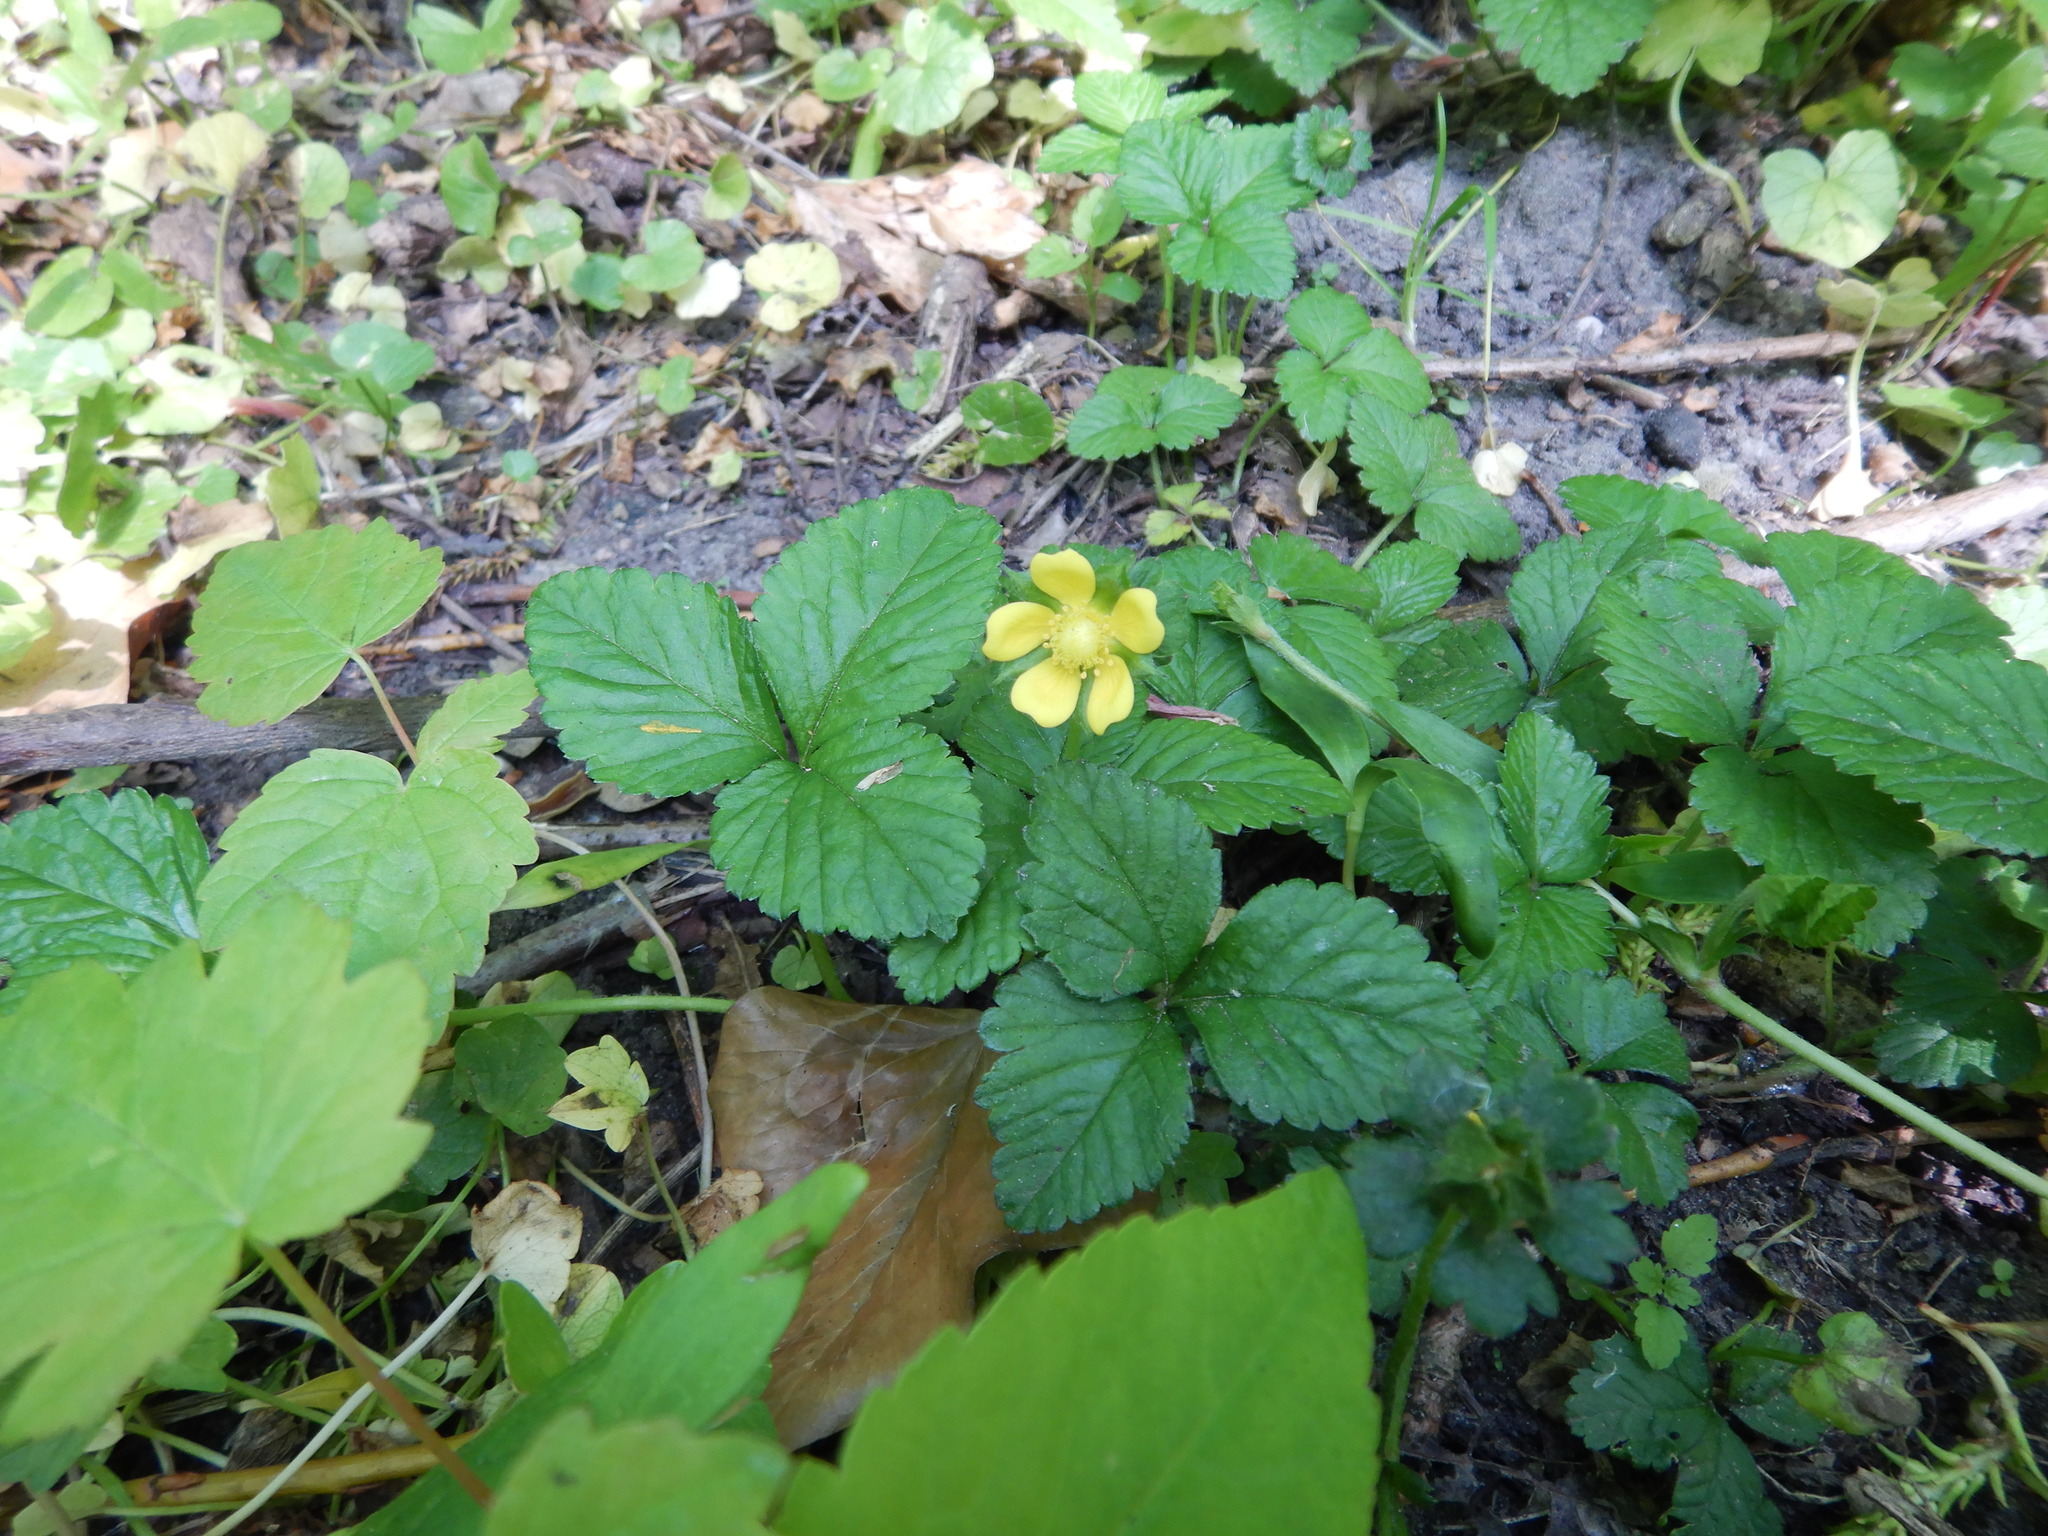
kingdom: Plantae
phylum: Tracheophyta
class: Magnoliopsida
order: Rosales
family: Rosaceae
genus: Potentilla
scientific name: Potentilla indica
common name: Yellow-flowered strawberry
